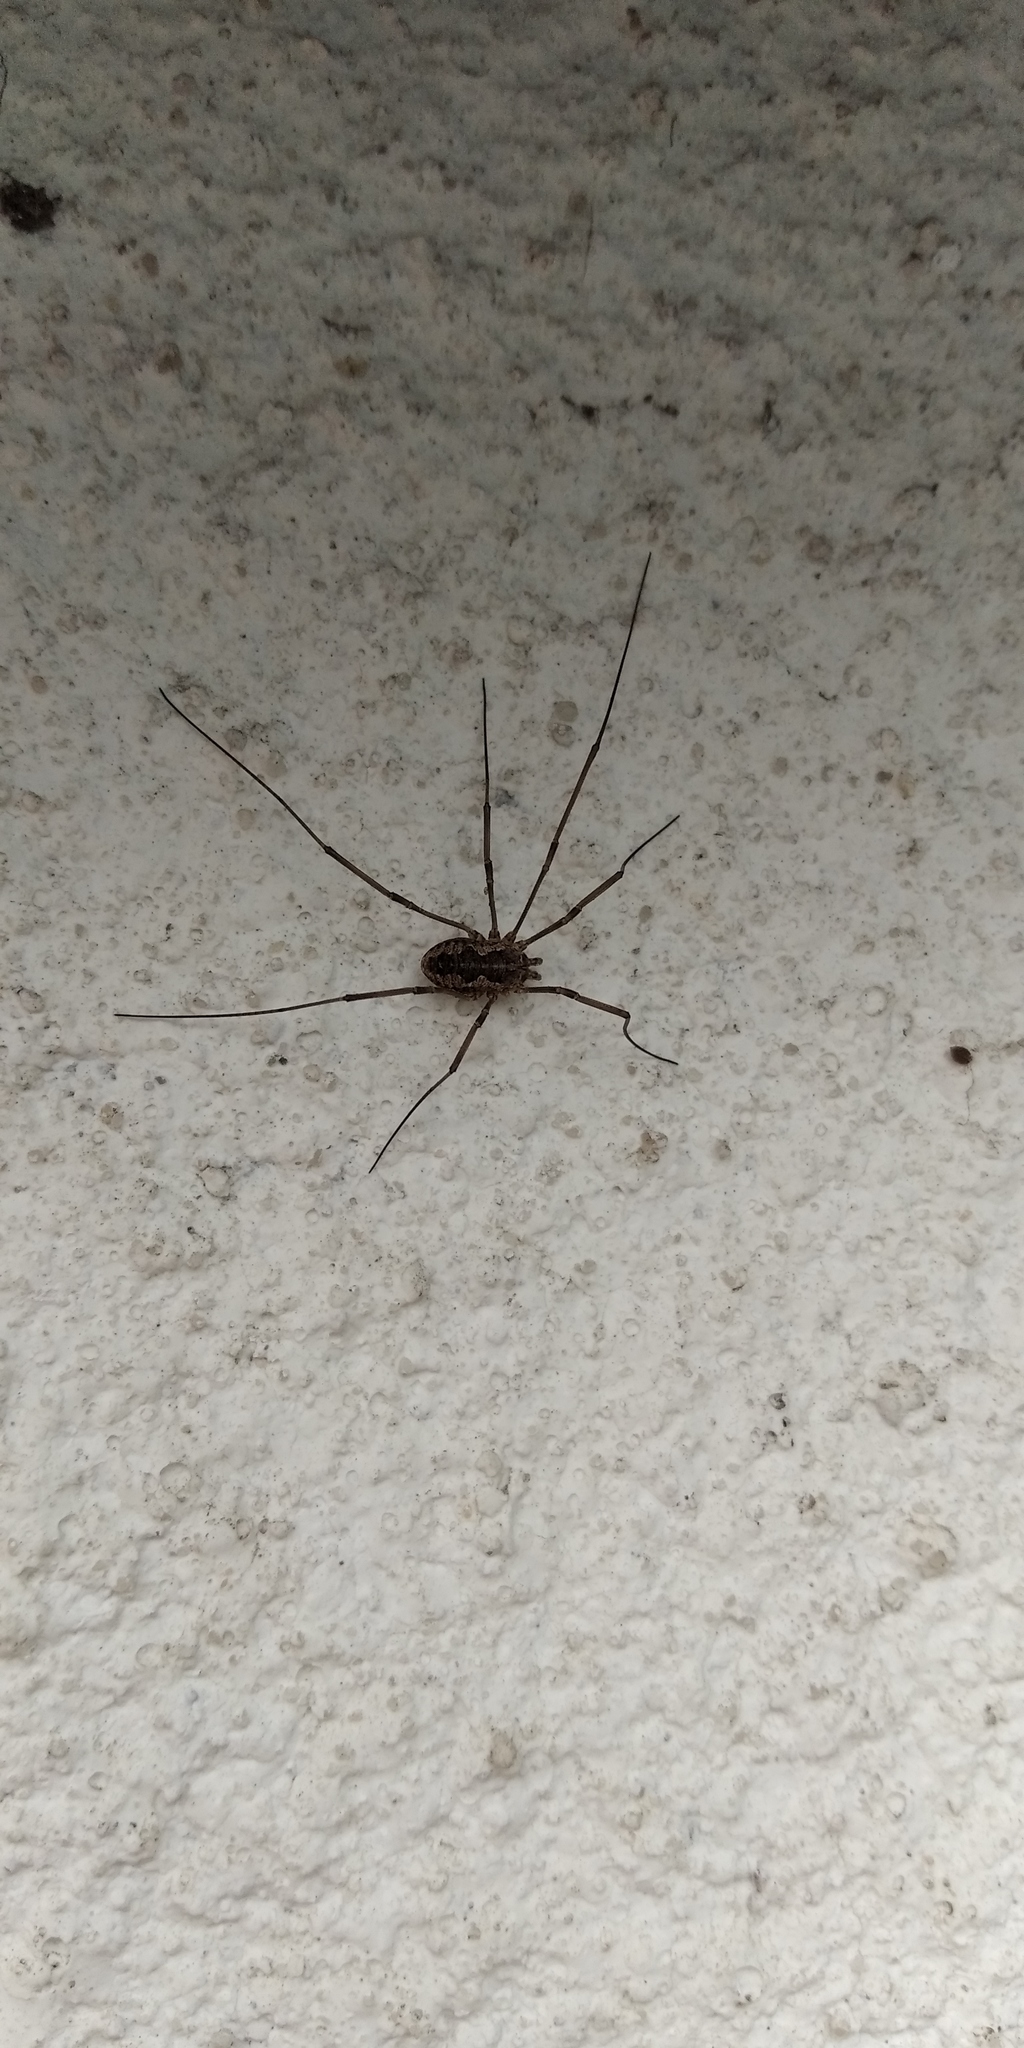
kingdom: Animalia
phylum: Arthropoda
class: Arachnida
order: Opiliones
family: Phalangiidae
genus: Phalangium
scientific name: Phalangium opilio
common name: Daddy longleg
